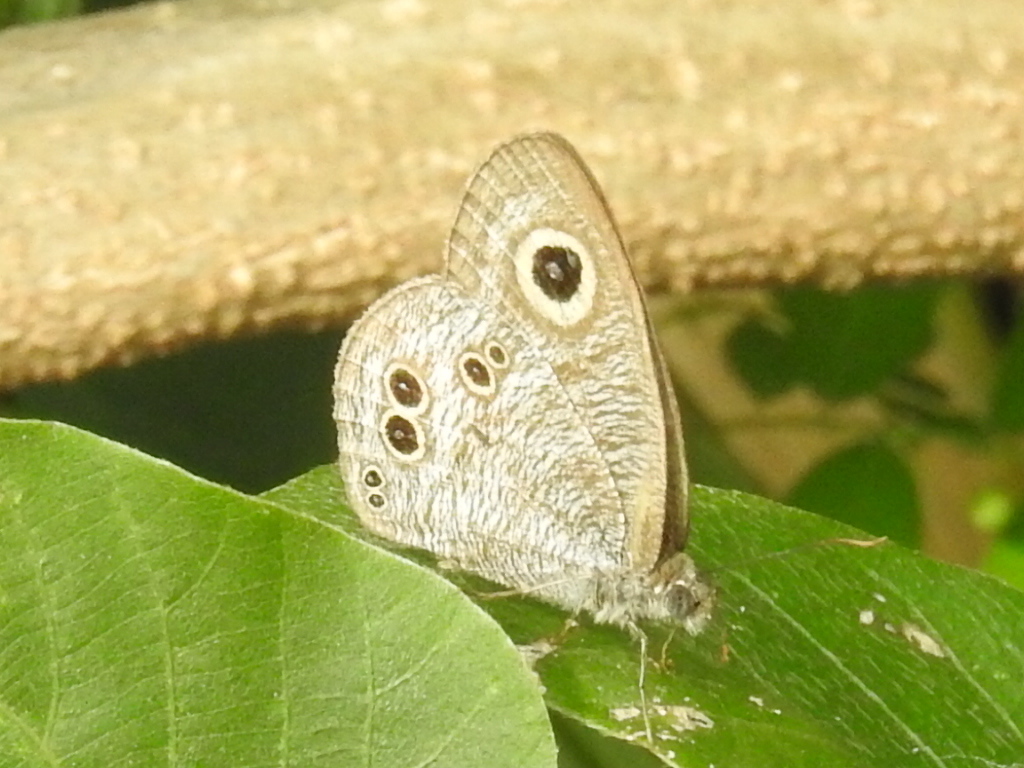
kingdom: Animalia
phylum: Arthropoda
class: Insecta
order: Lepidoptera
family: Nymphalidae
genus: Ypthima
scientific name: Ypthima baldus
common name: Common five-ring
